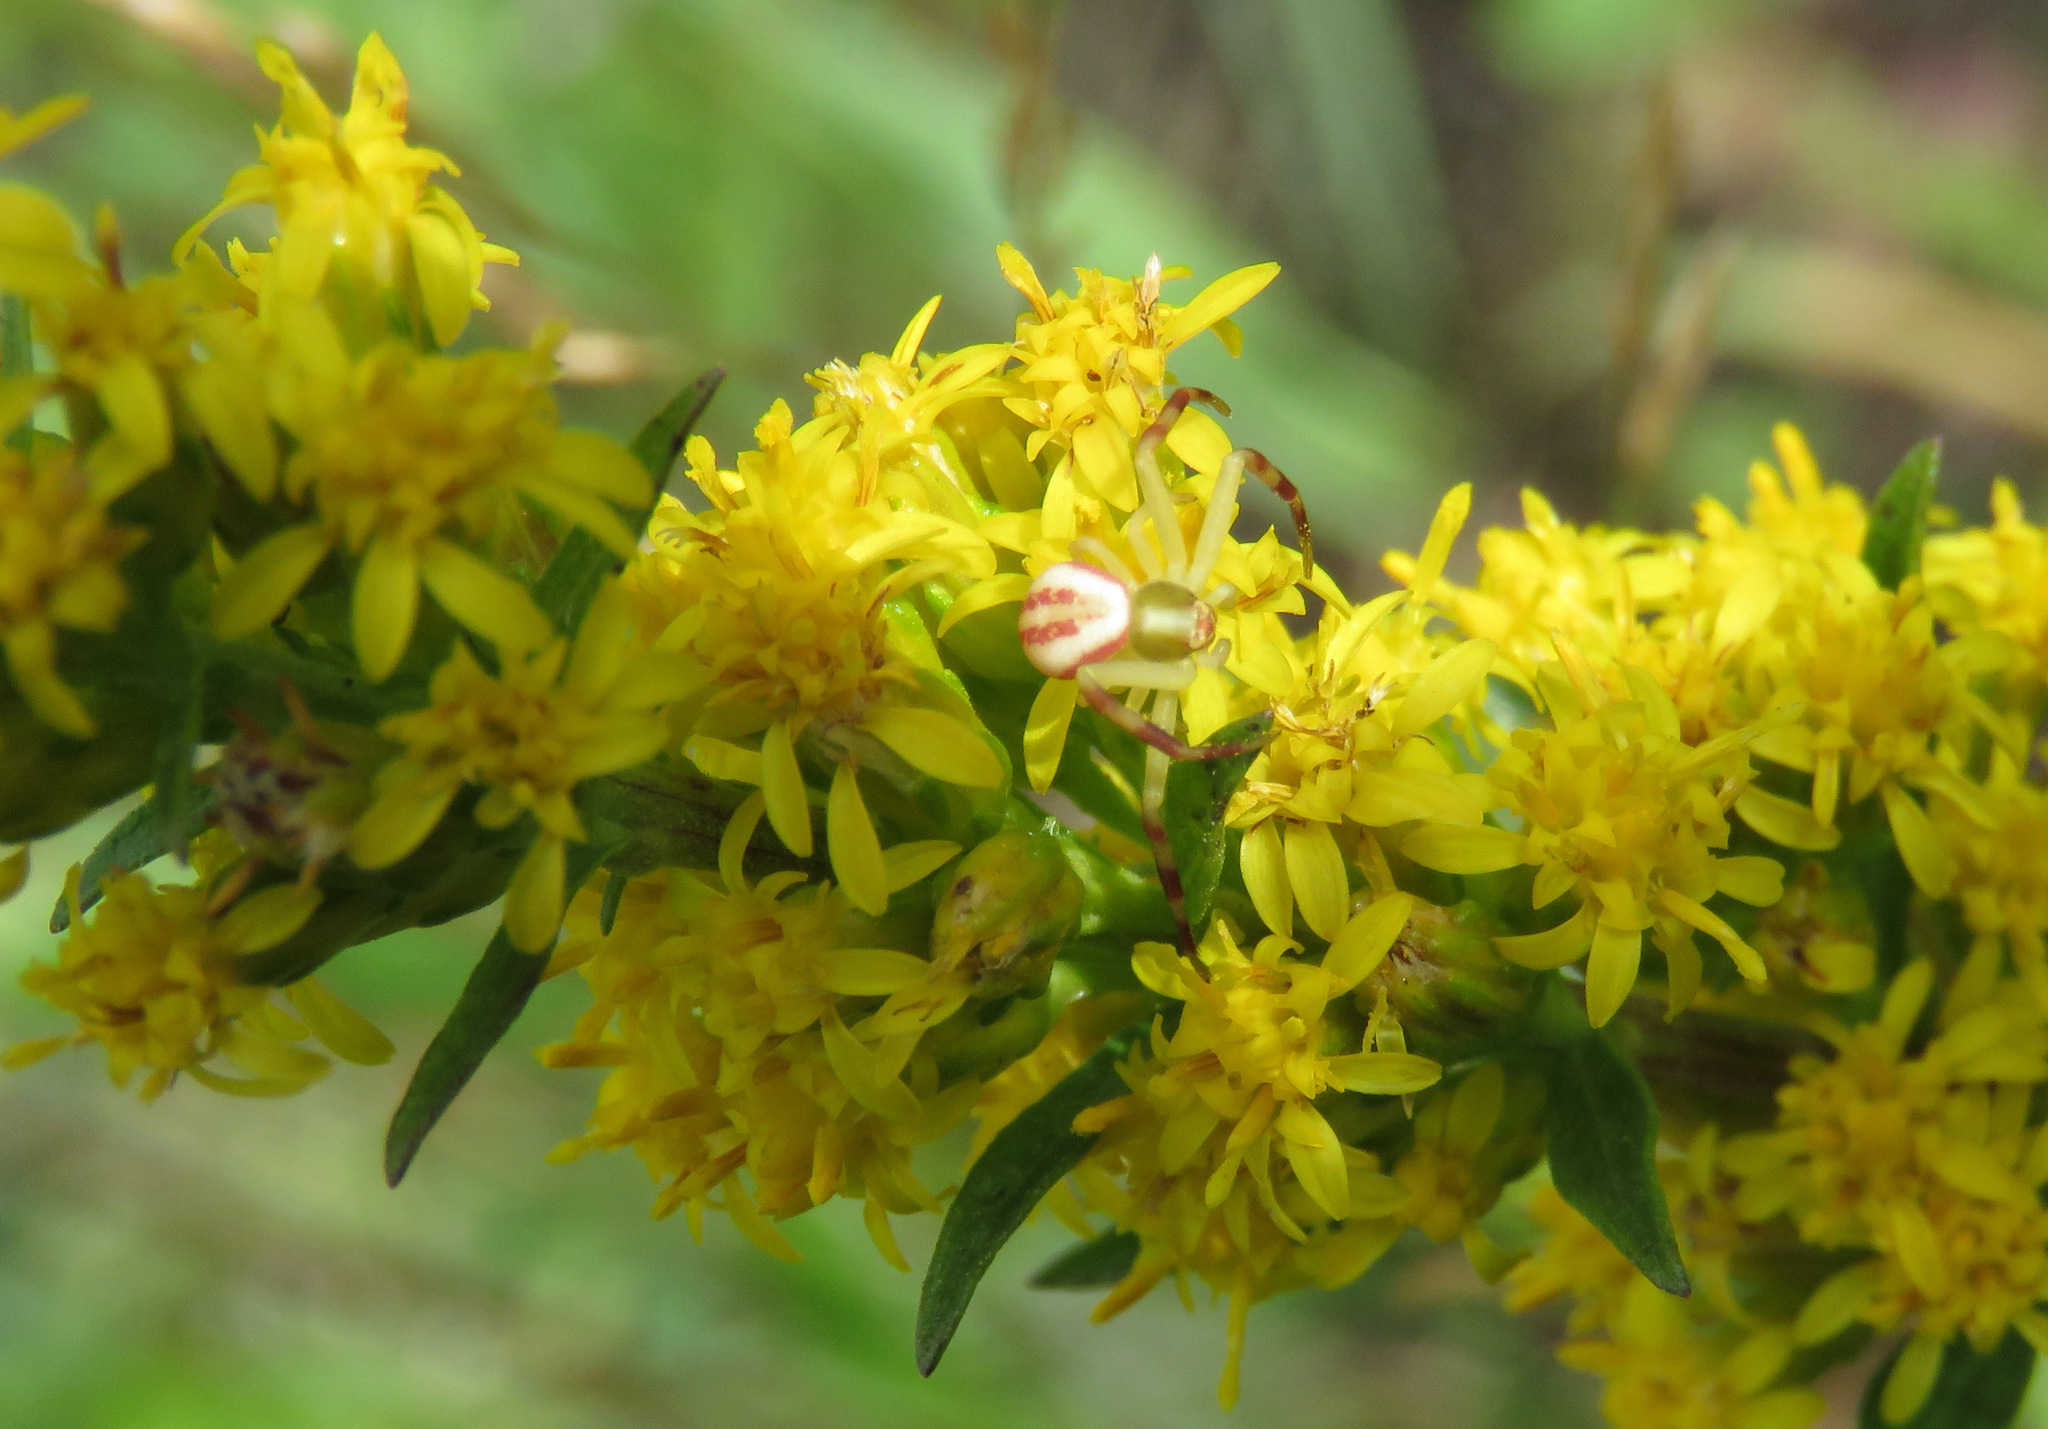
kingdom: Animalia
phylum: Arthropoda
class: Arachnida
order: Araneae
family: Thomisidae
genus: Misumena
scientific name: Misumena vatia
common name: Goldenrod crab spider
